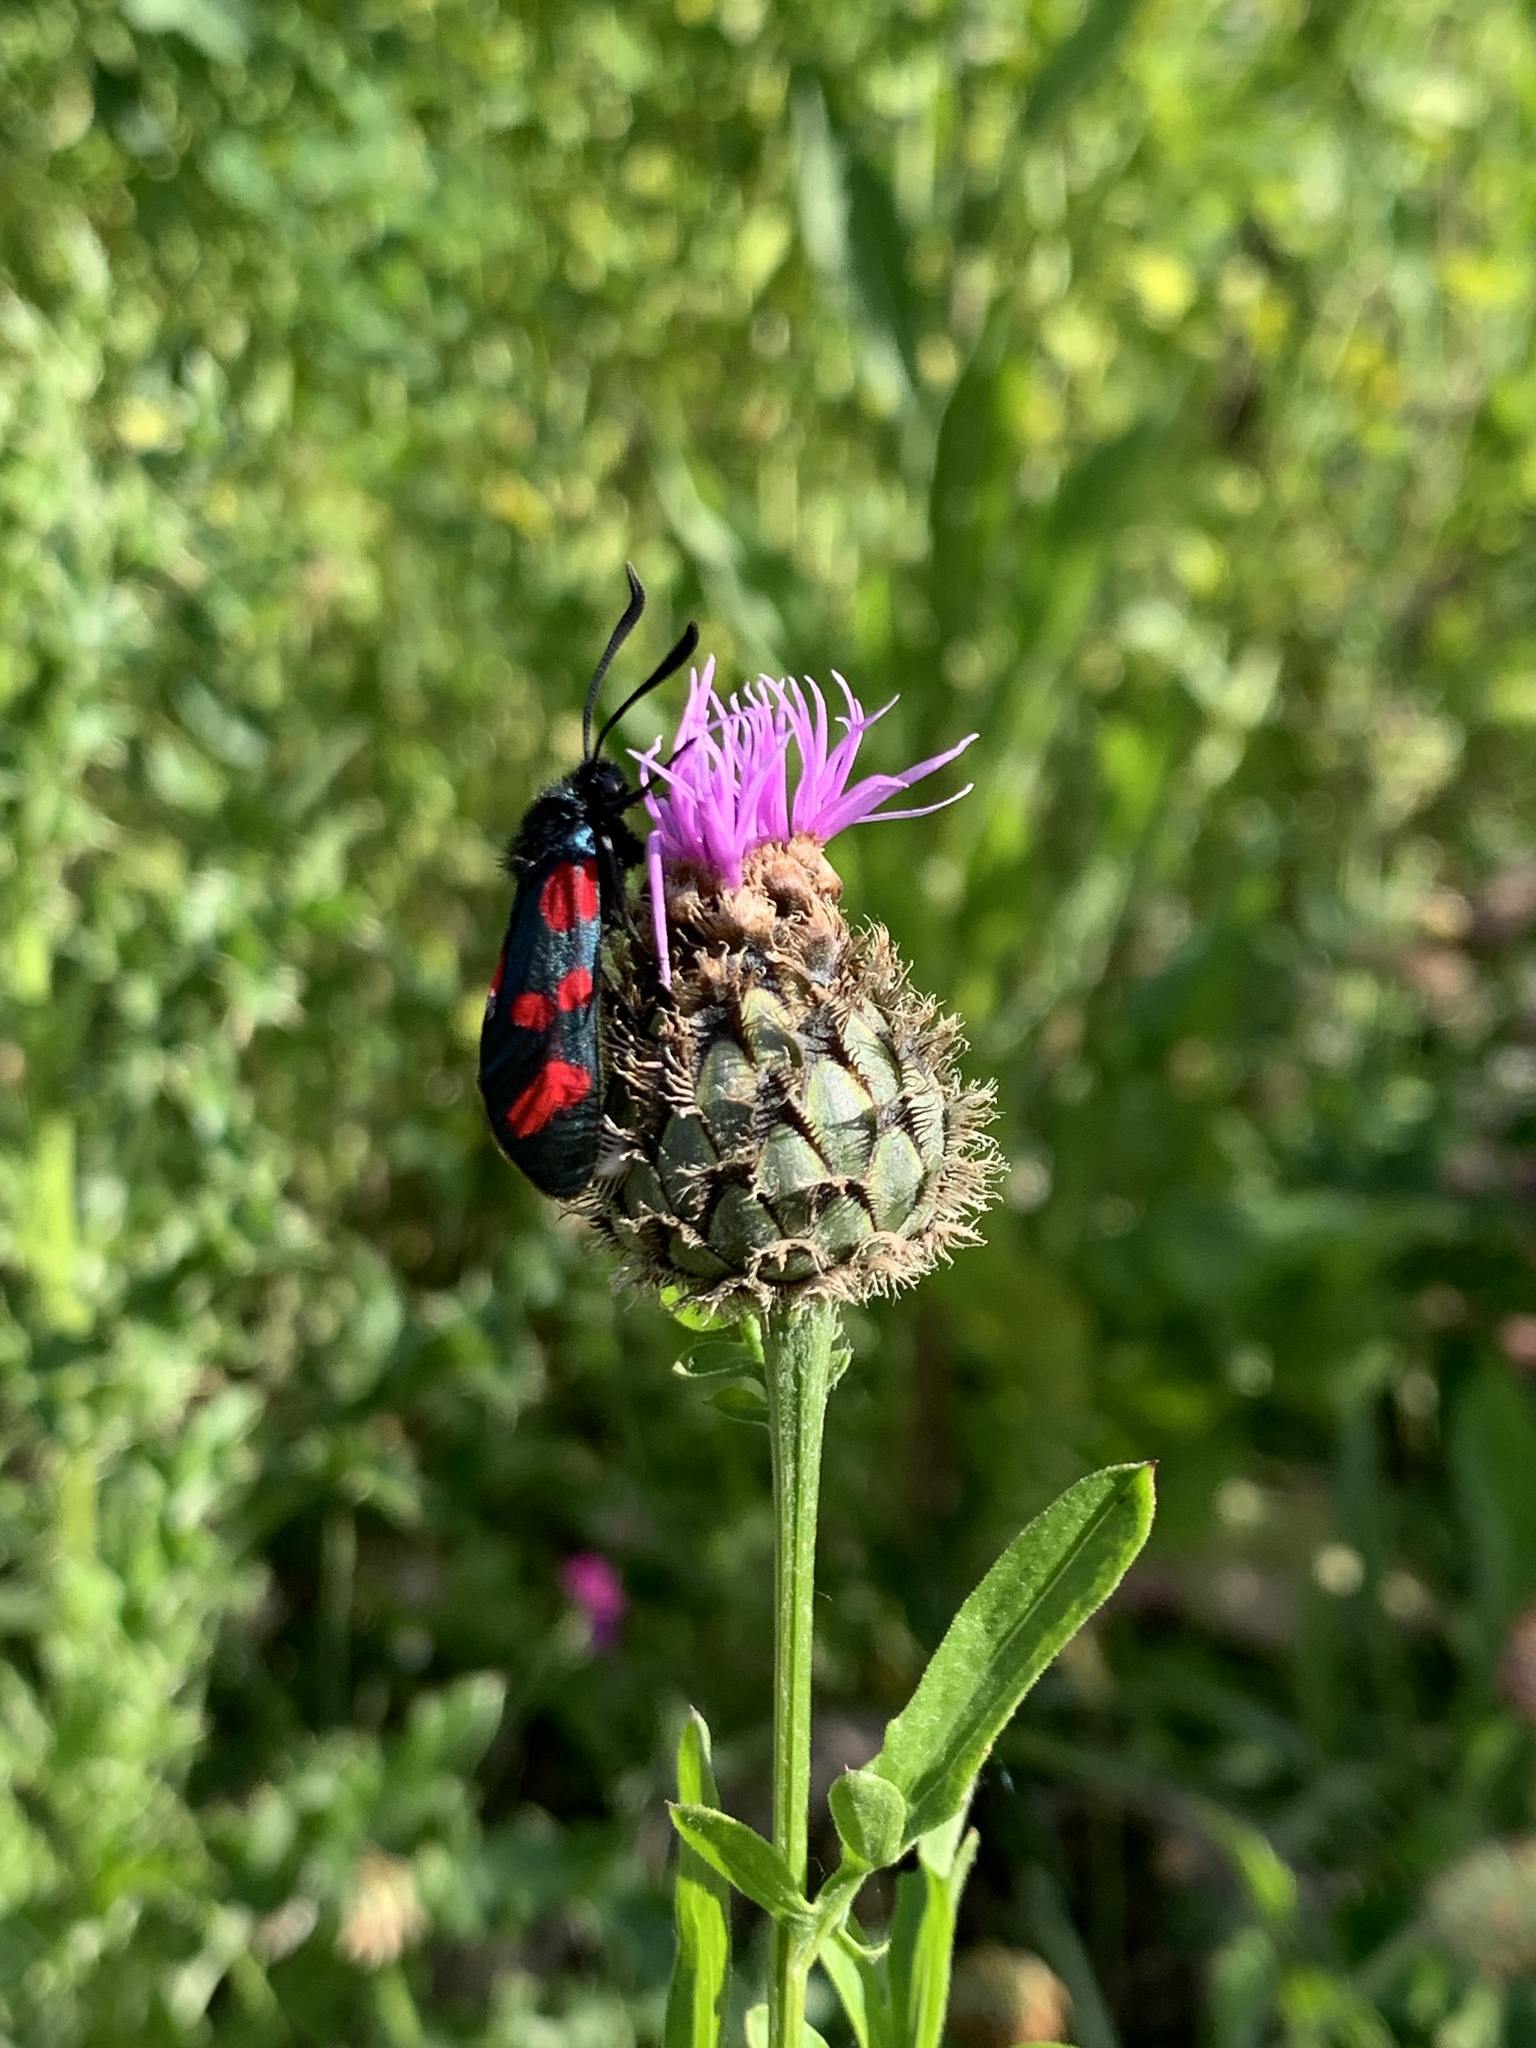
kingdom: Animalia
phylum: Arthropoda
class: Insecta
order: Lepidoptera
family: Zygaenidae
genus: Zygaena
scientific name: Zygaena filipendulae
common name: Six-spot burnet
